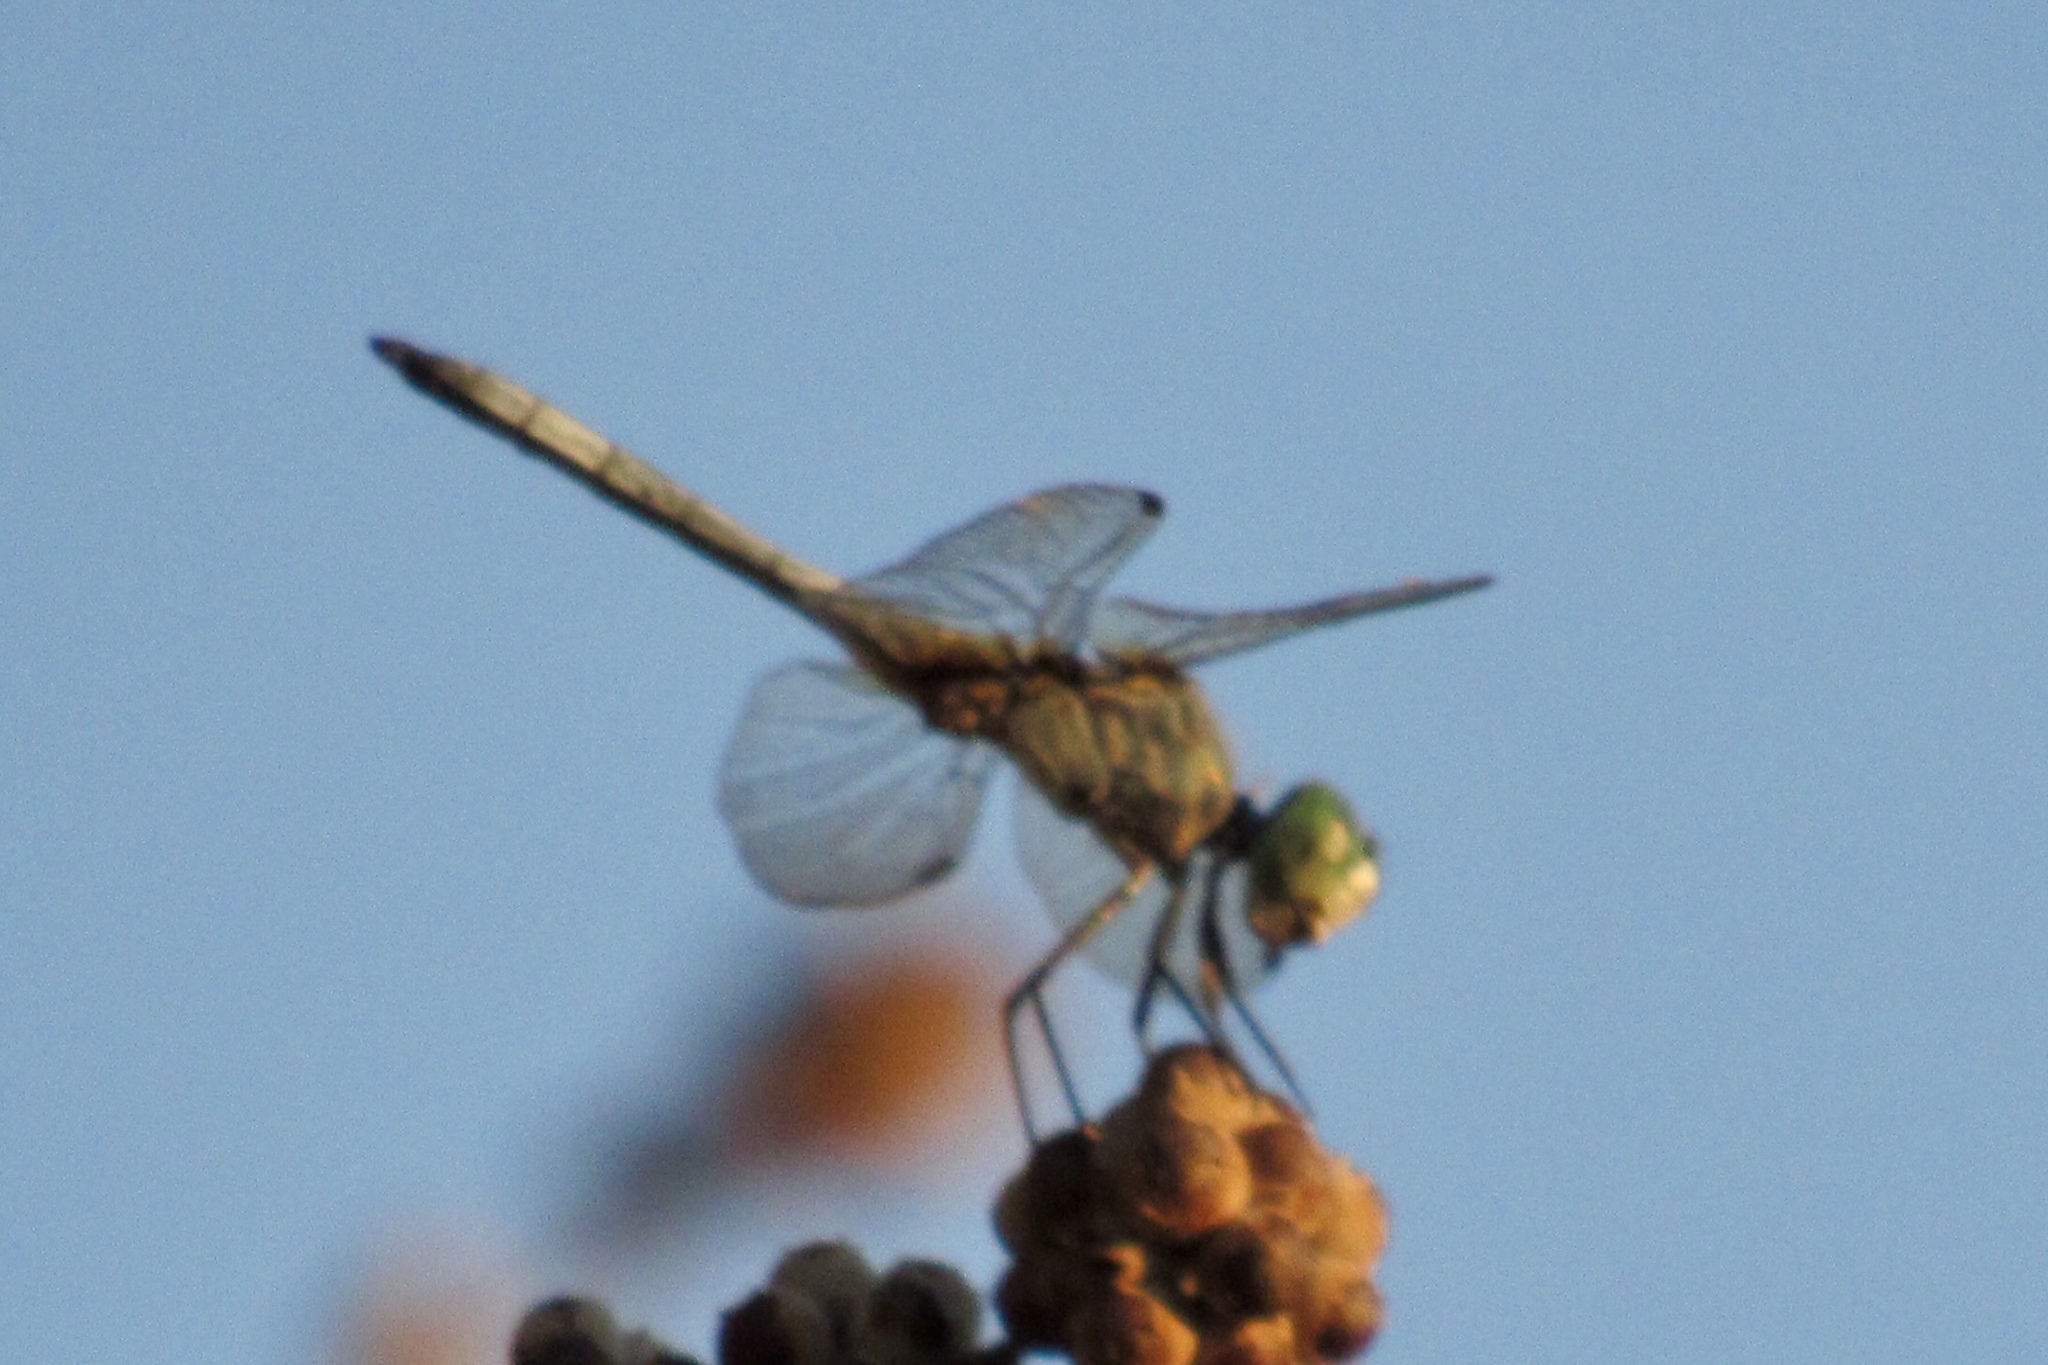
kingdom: Animalia
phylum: Arthropoda
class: Insecta
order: Odonata
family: Libellulidae
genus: Pachydiplax
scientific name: Pachydiplax longipennis
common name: Blue dasher
